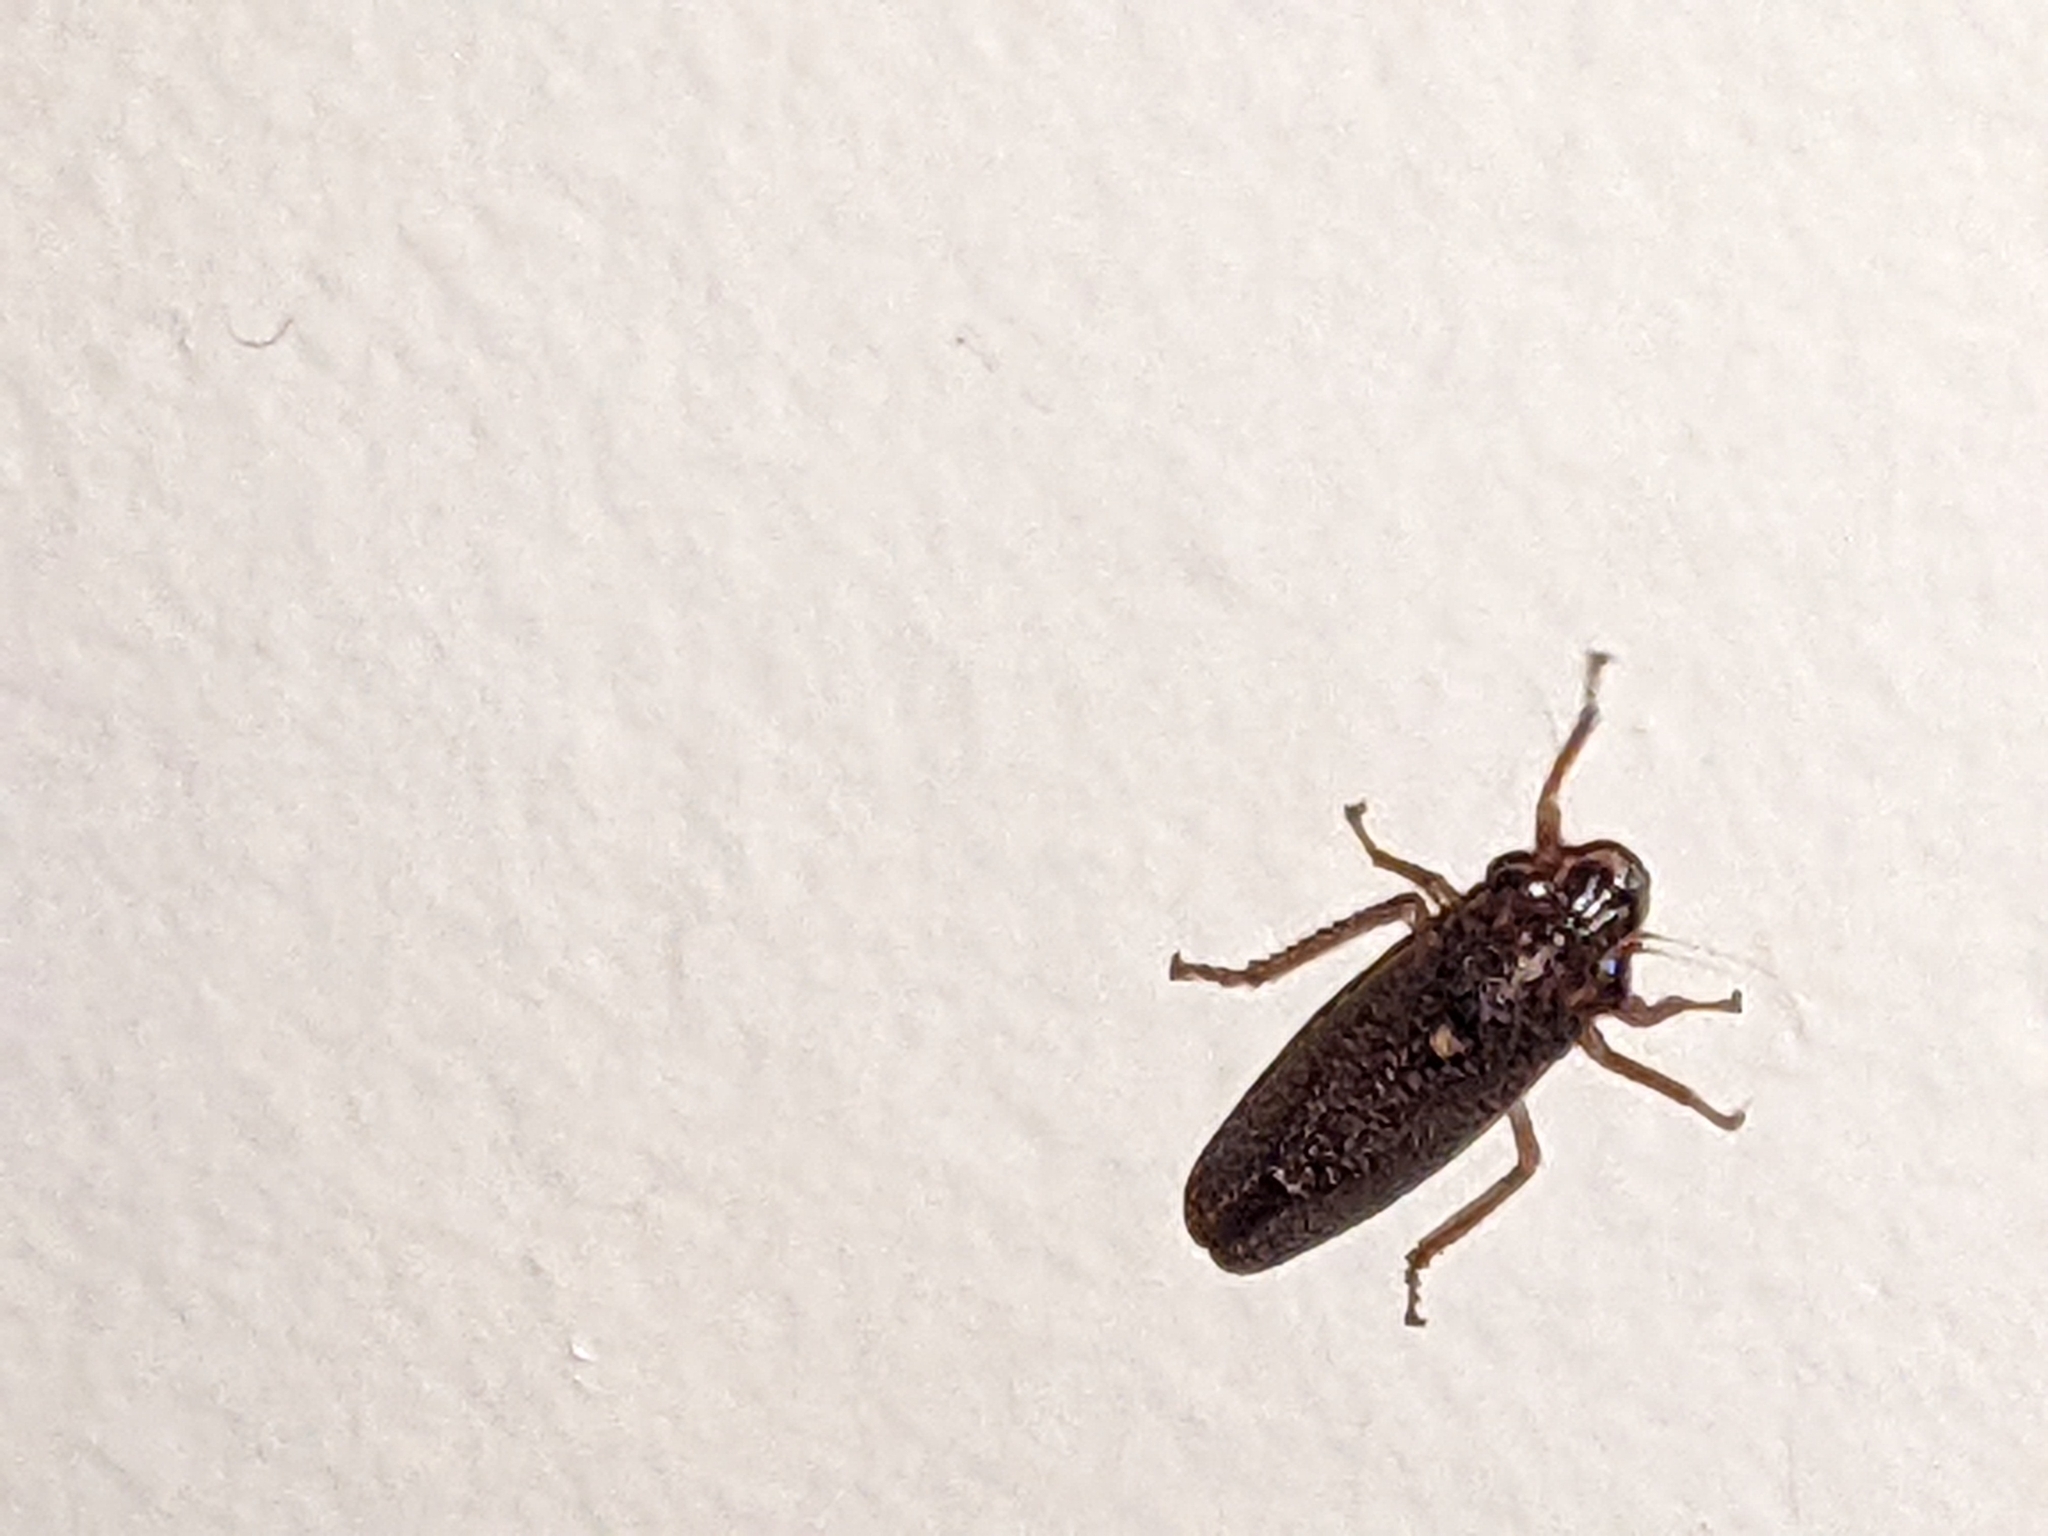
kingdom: Animalia
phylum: Arthropoda
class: Insecta
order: Hemiptera
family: Cicadellidae
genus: Paraulacizes
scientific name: Paraulacizes irrorata
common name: Speckled sharpshooter
